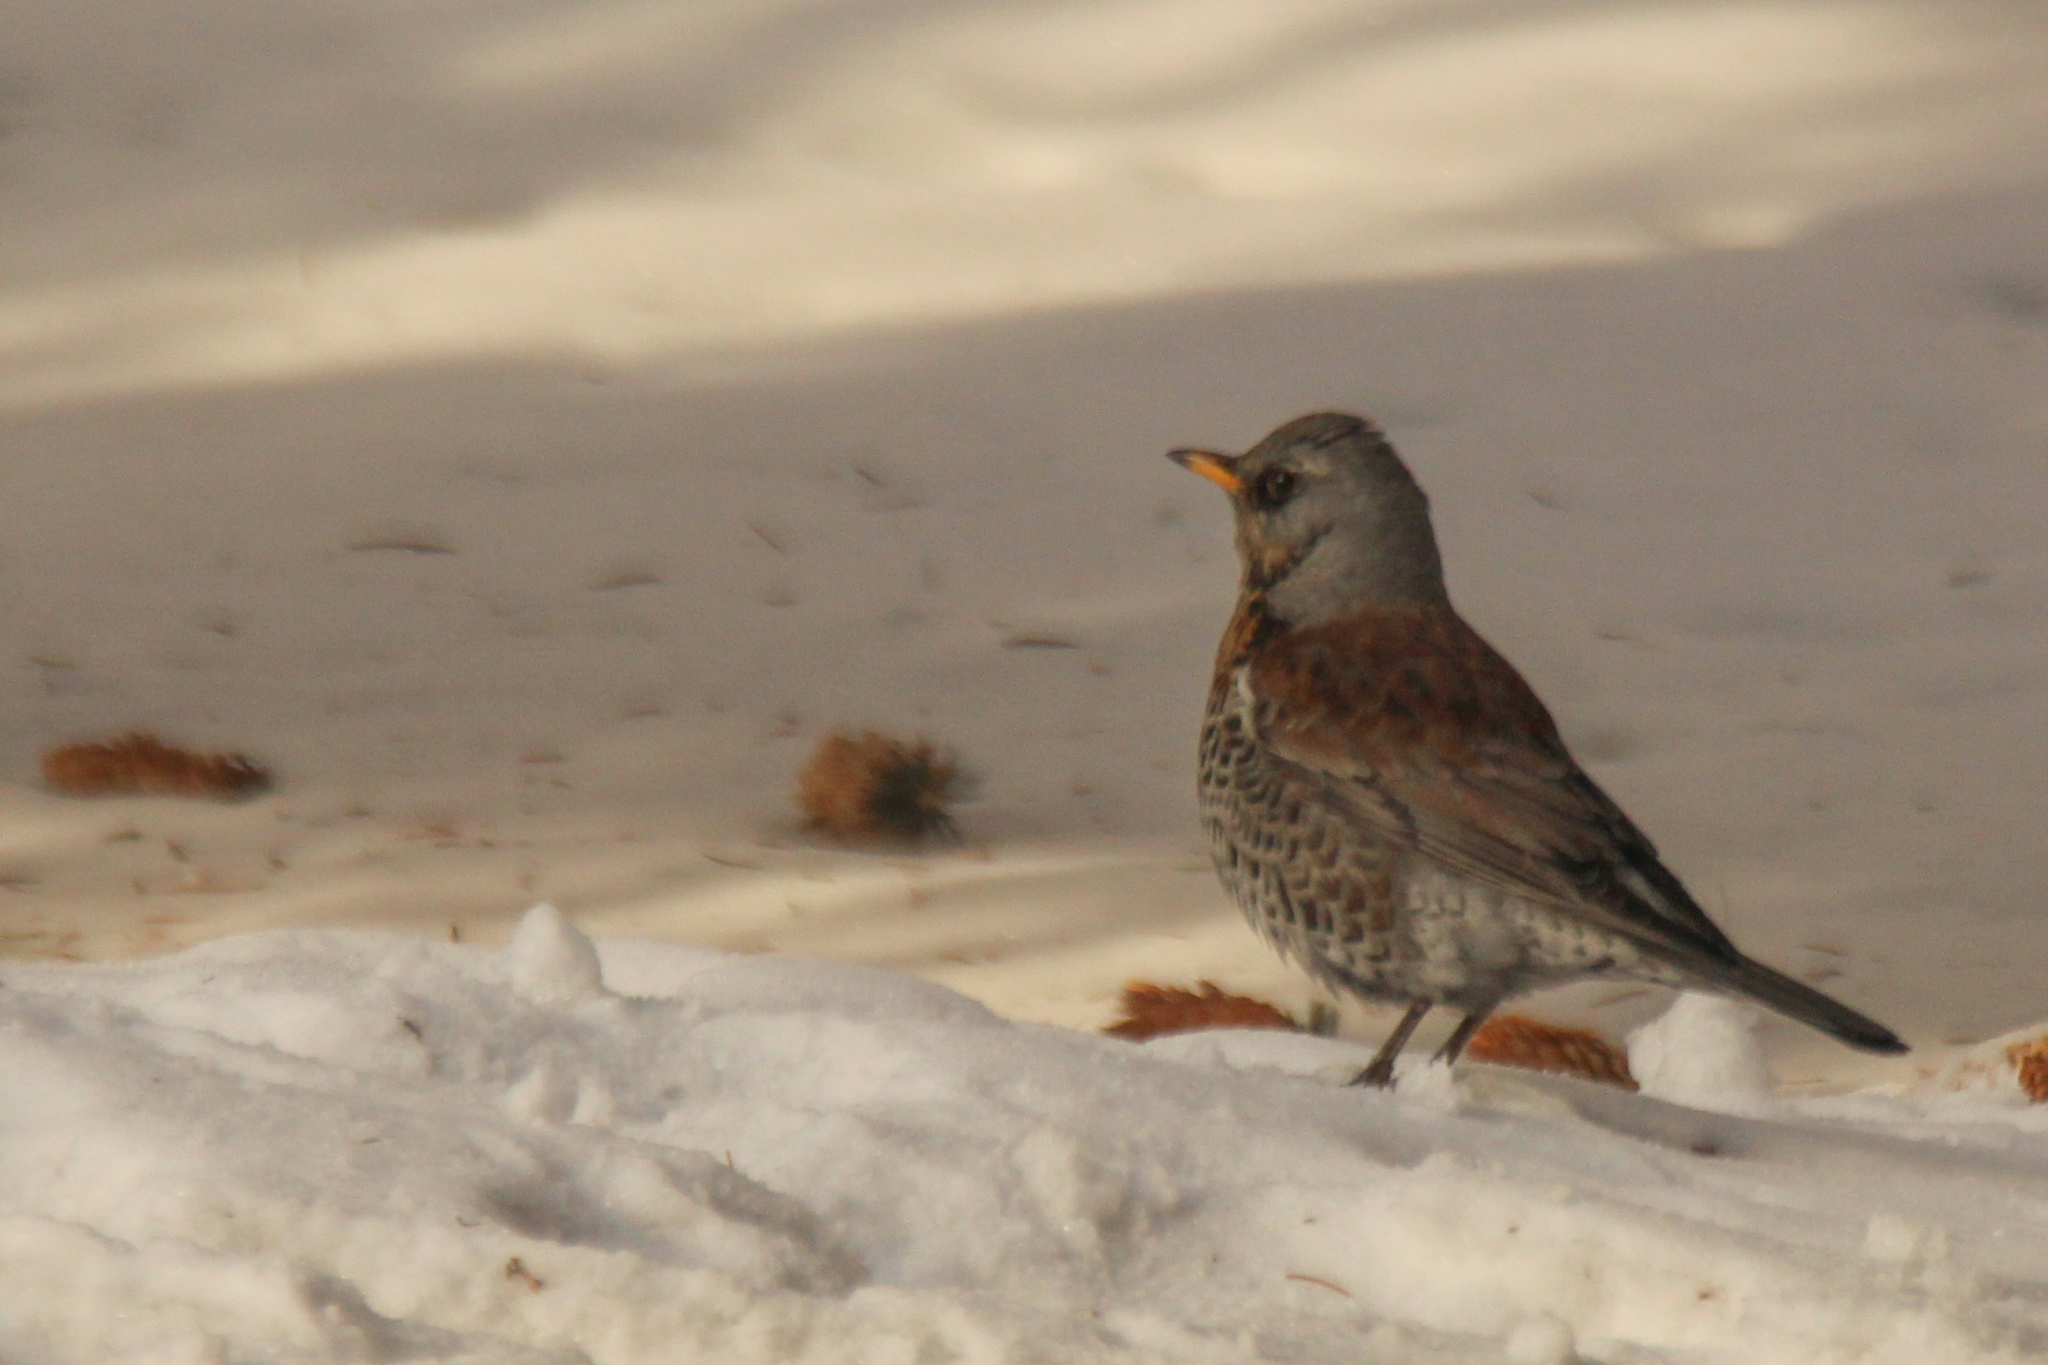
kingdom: Animalia
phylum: Chordata
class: Aves
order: Passeriformes
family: Turdidae
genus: Turdus
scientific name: Turdus pilaris
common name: Fieldfare
